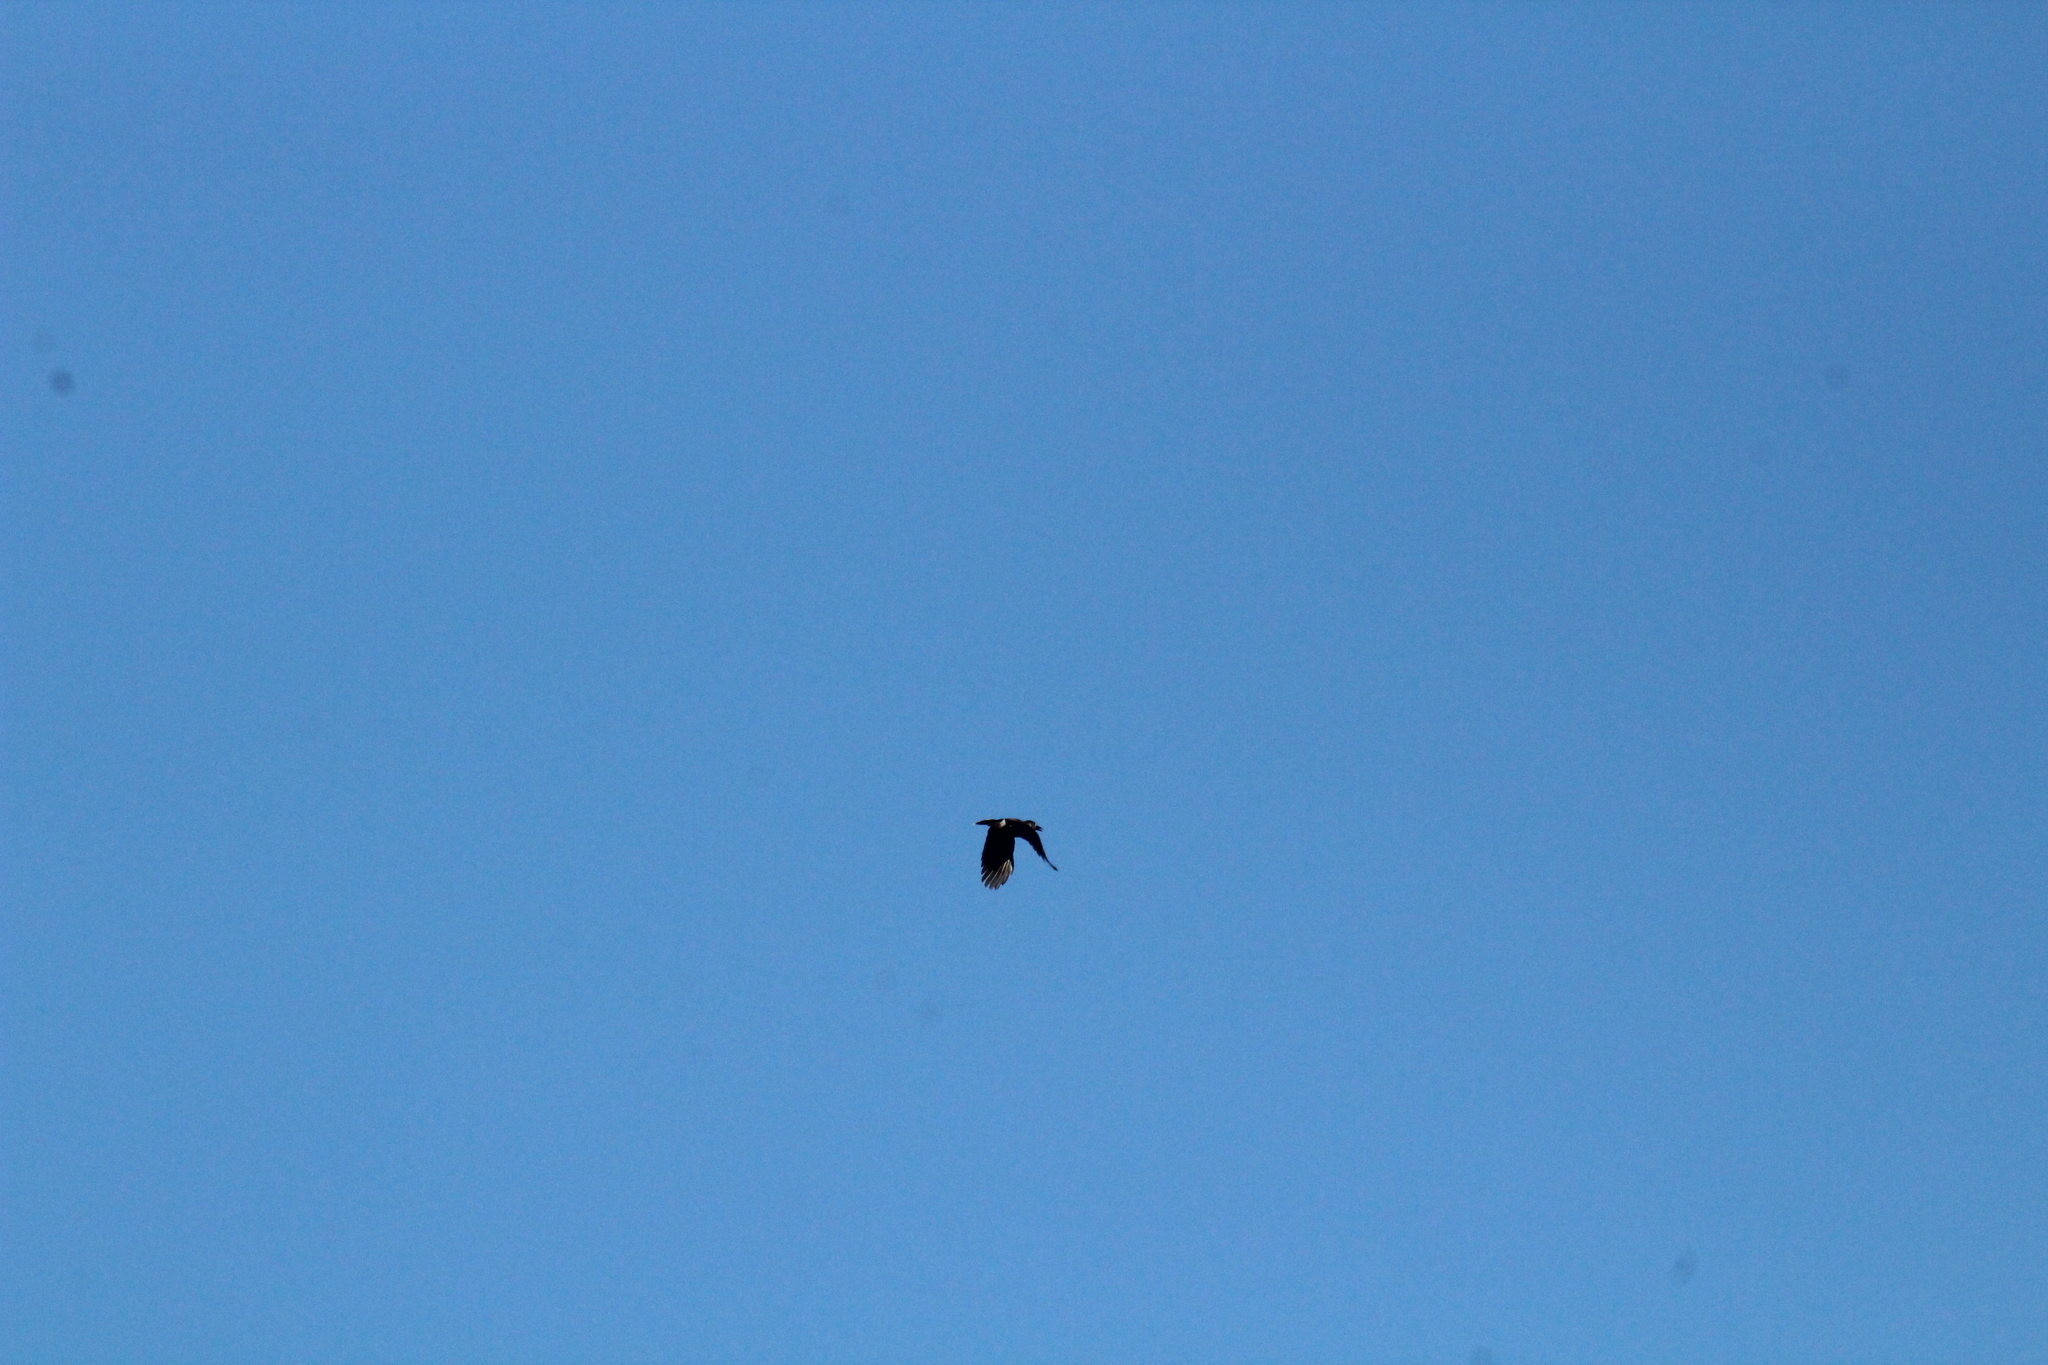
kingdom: Animalia
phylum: Chordata
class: Aves
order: Passeriformes
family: Corvidae
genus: Nucifraga
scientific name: Nucifraga caryocatactes
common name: Spotted nutcracker
